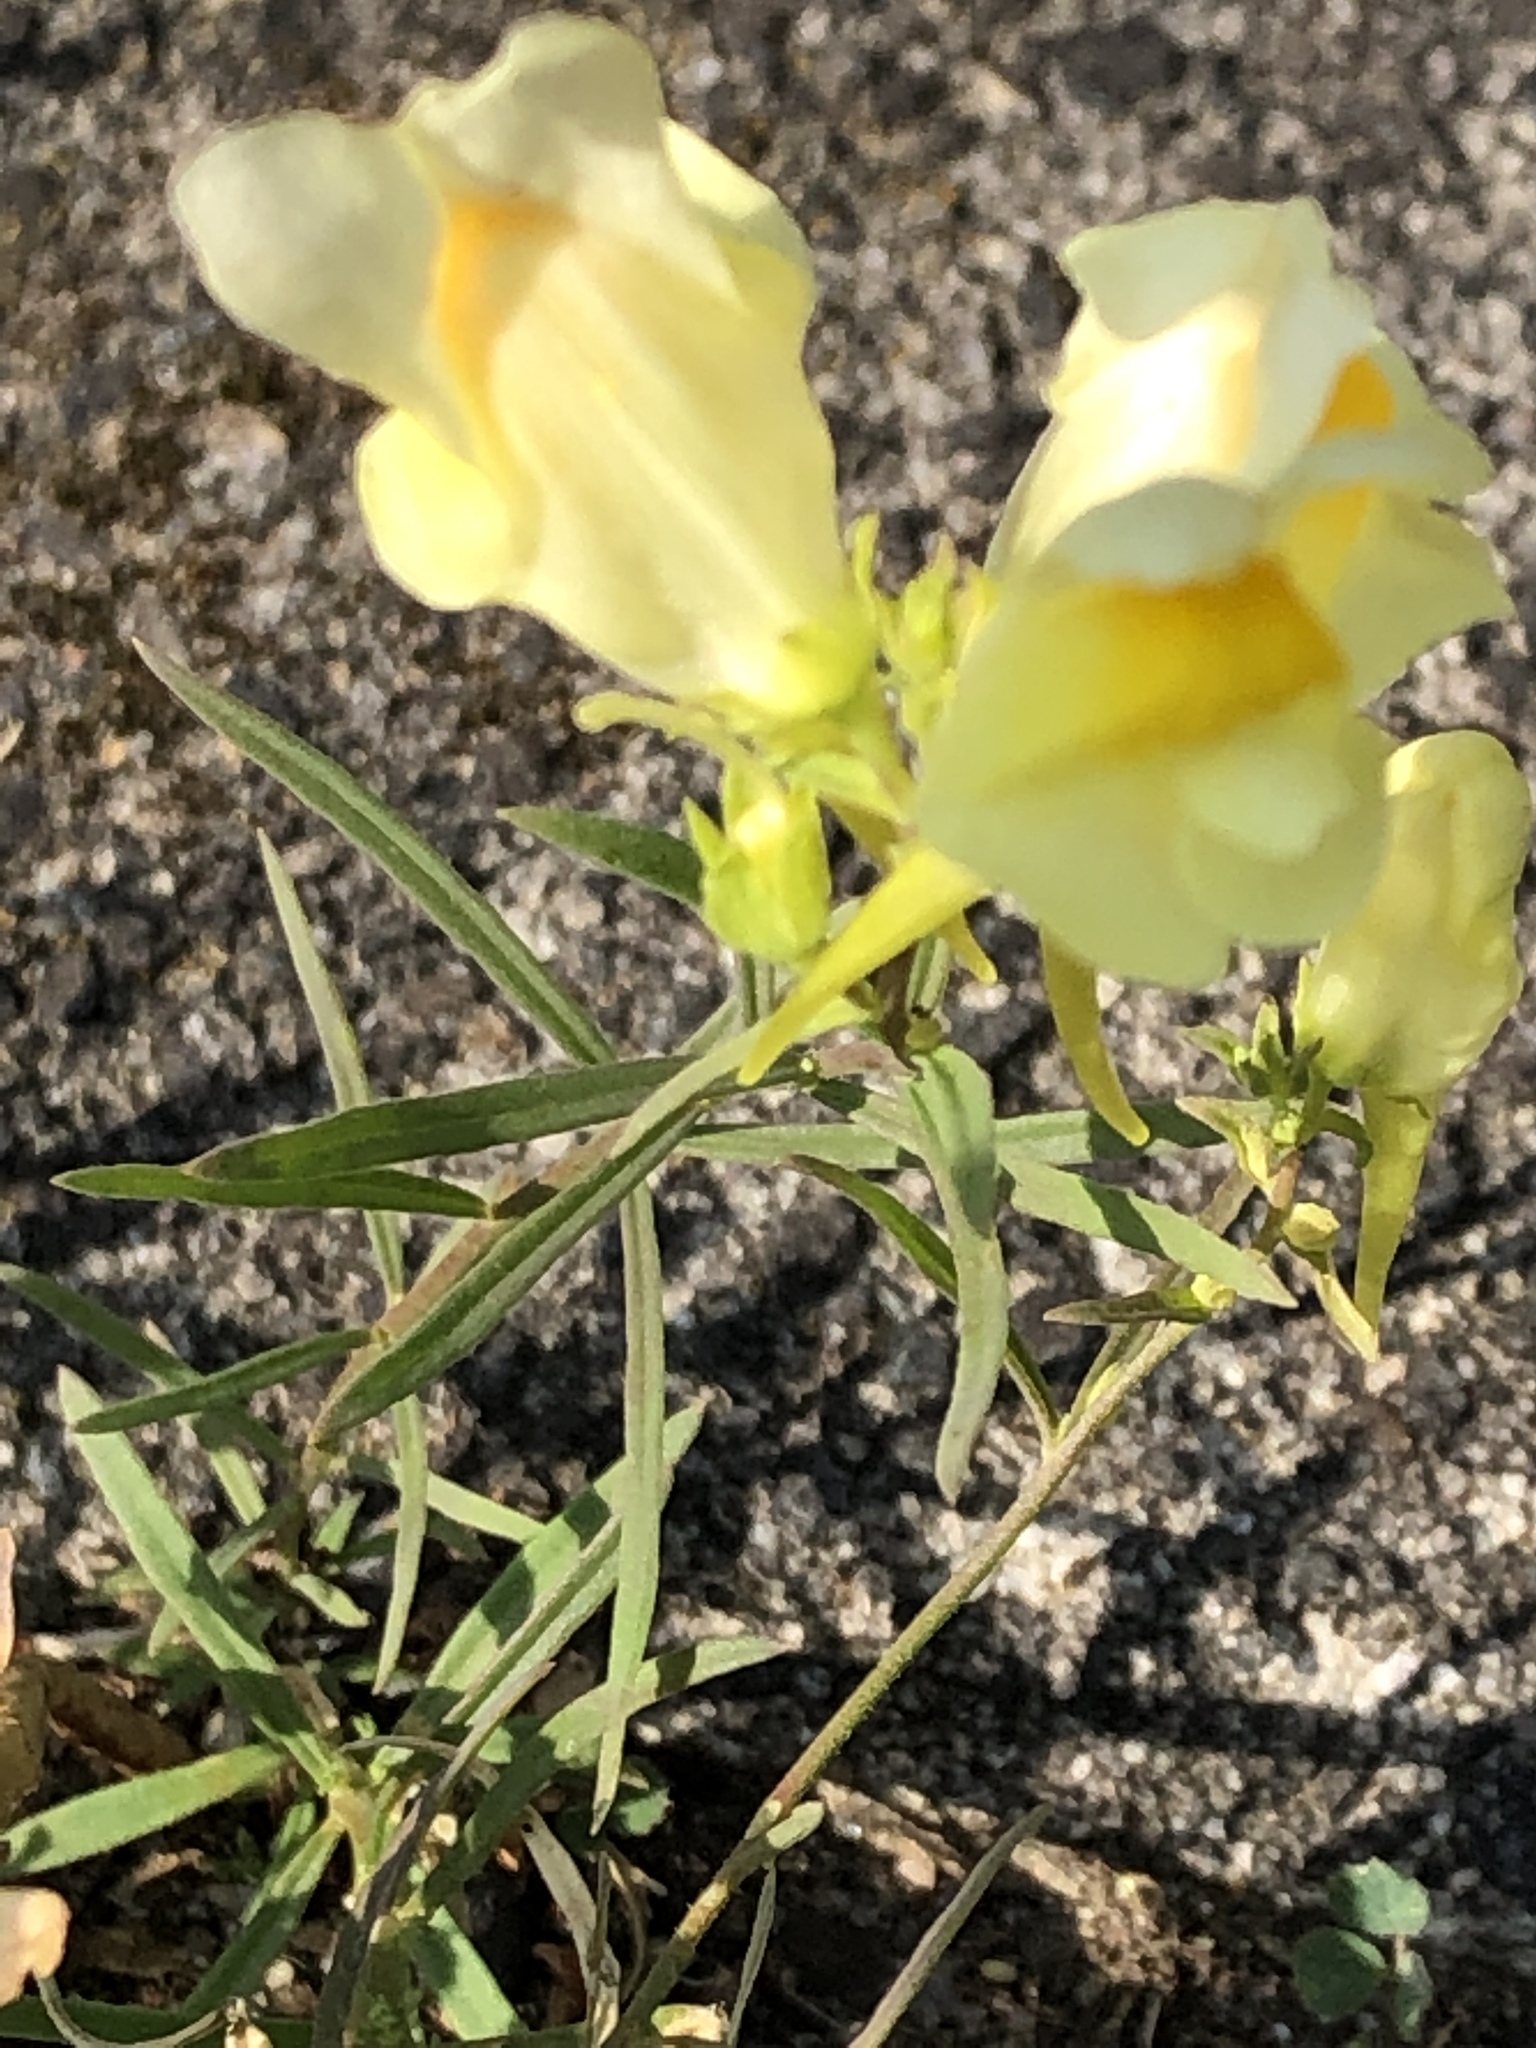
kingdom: Plantae
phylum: Tracheophyta
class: Magnoliopsida
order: Lamiales
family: Plantaginaceae
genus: Linaria
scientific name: Linaria vulgaris
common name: Butter and eggs
